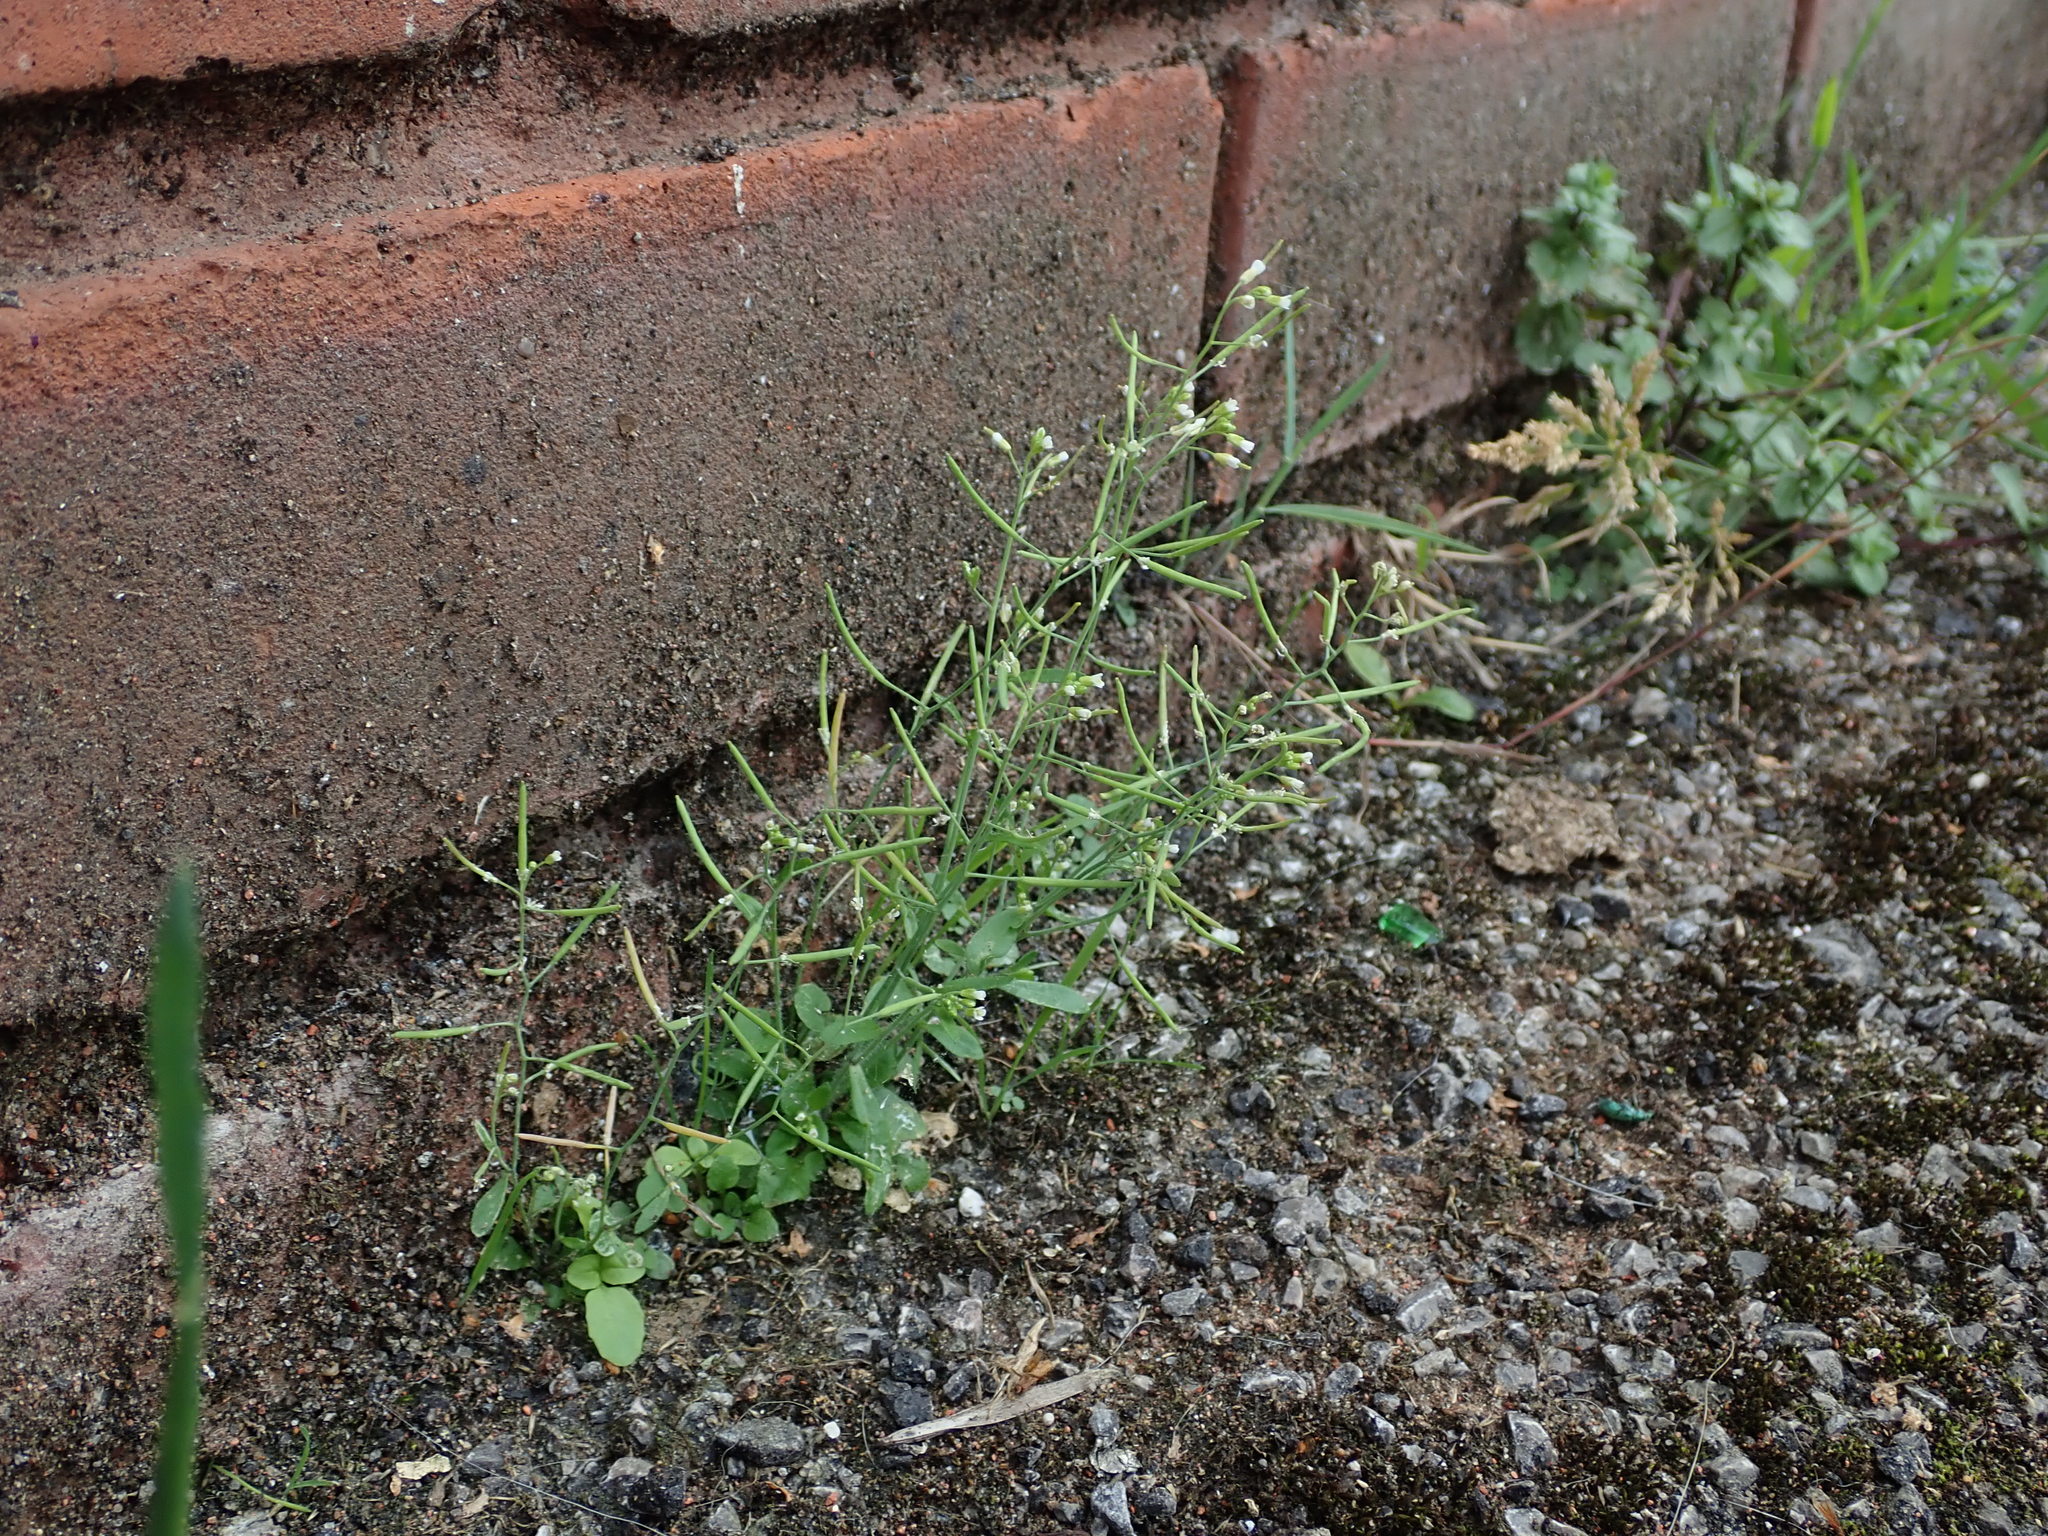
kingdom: Plantae
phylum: Tracheophyta
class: Magnoliopsida
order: Brassicales
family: Brassicaceae
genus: Arabidopsis
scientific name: Arabidopsis thaliana
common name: Thale cress
